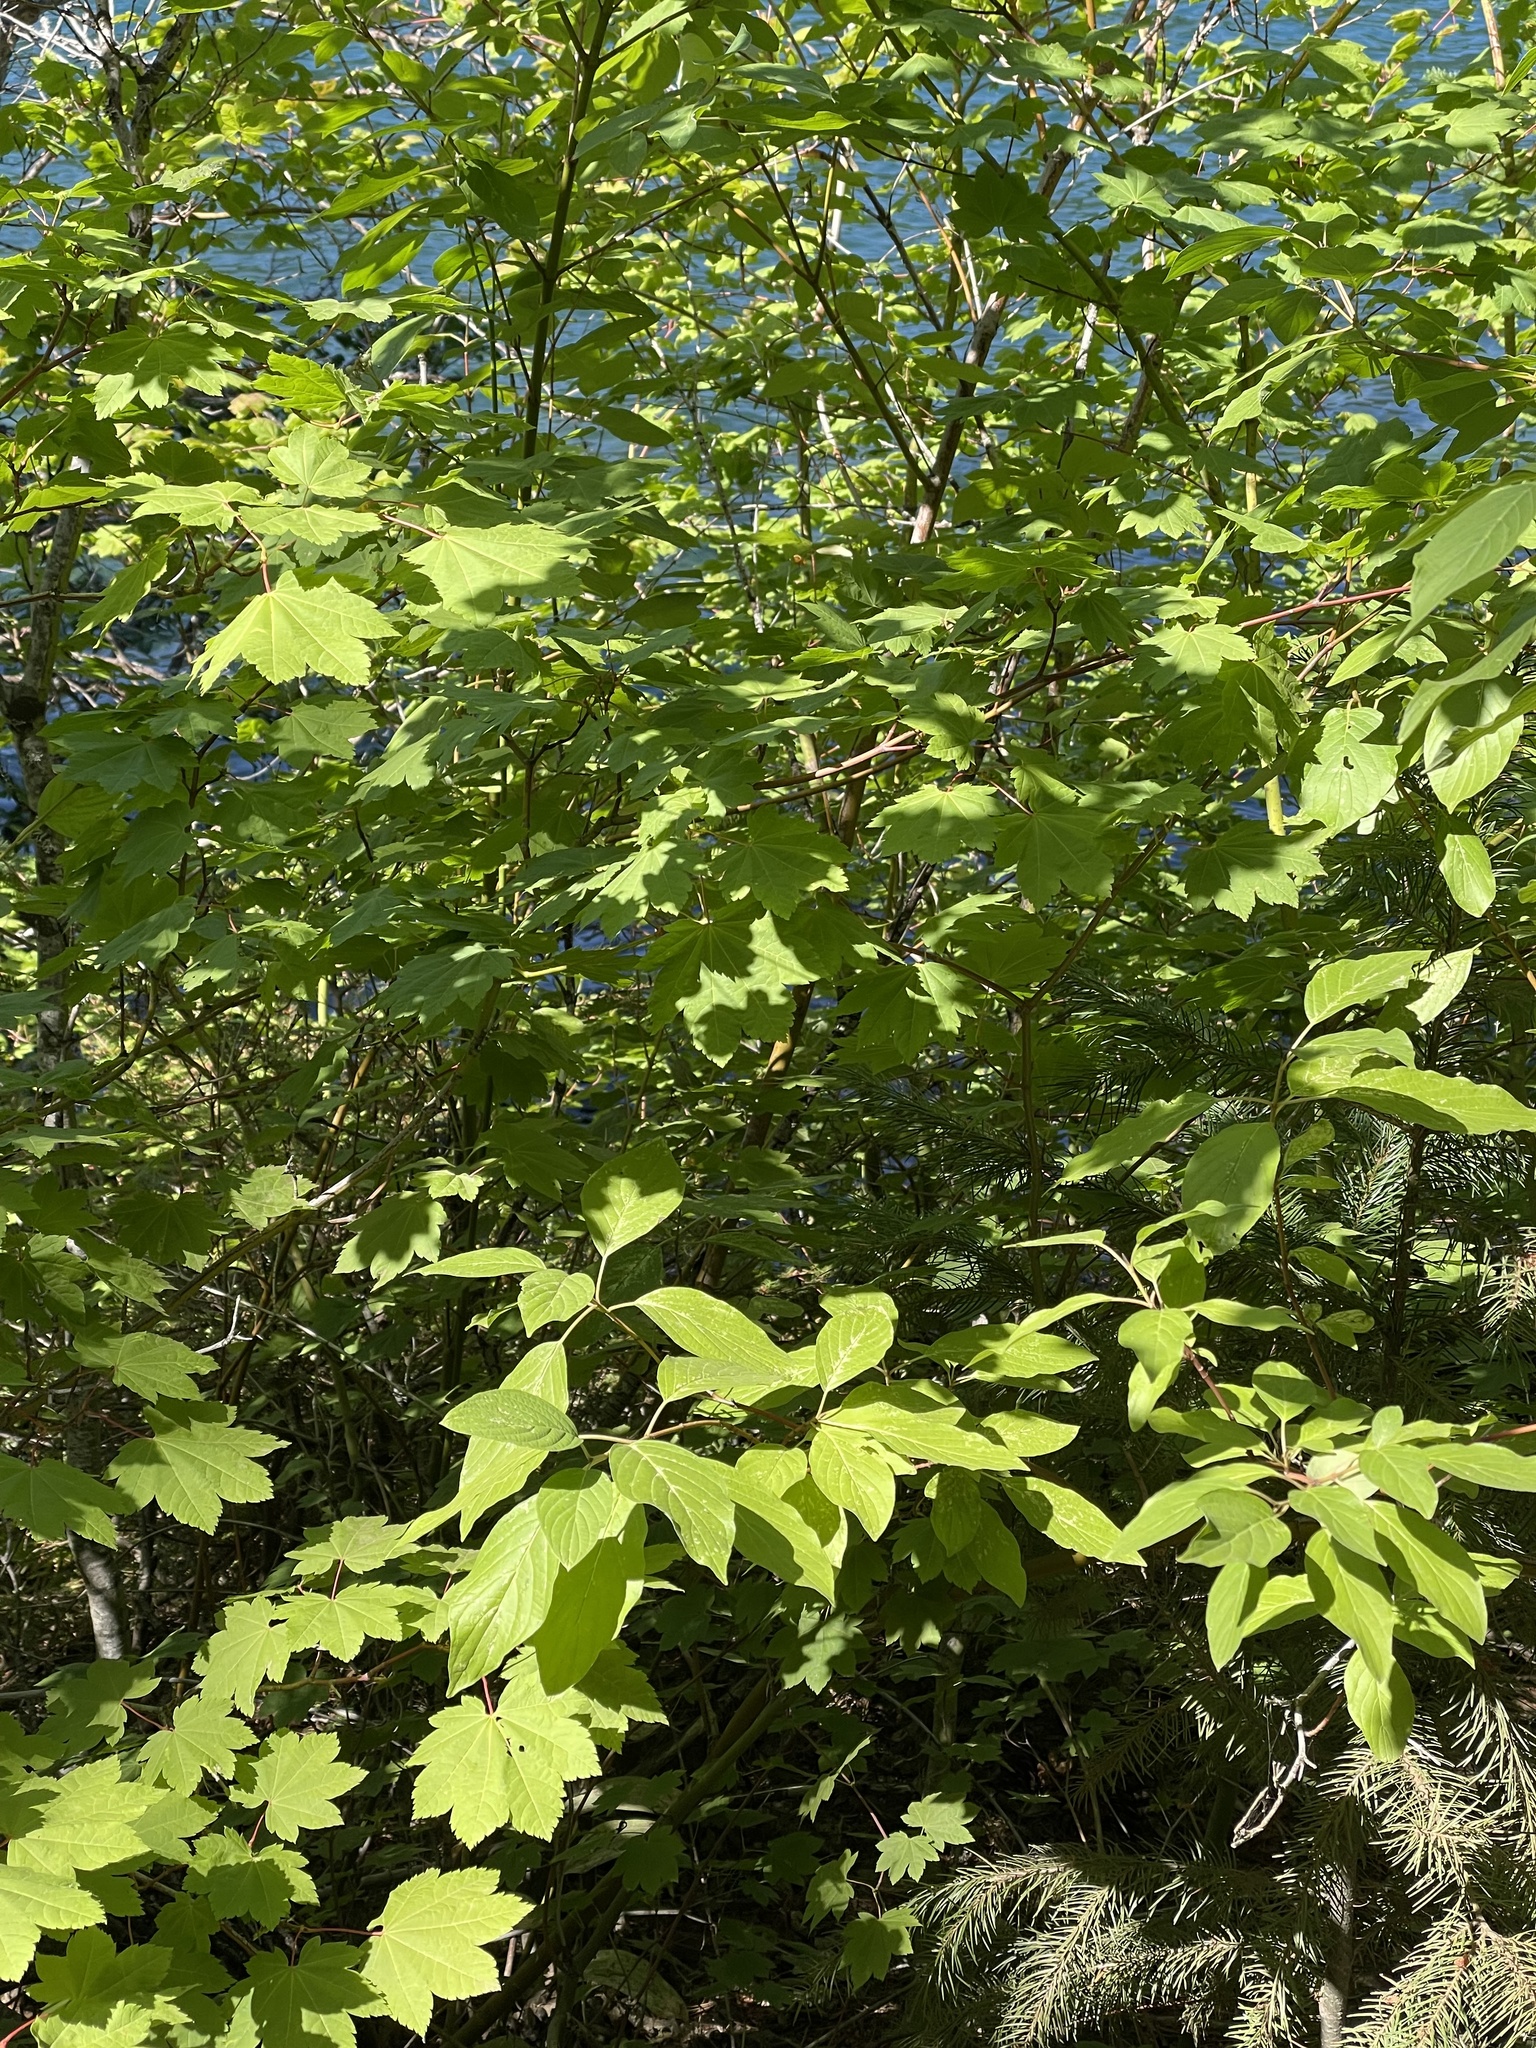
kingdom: Plantae
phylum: Tracheophyta
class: Magnoliopsida
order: Sapindales
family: Sapindaceae
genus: Acer
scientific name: Acer circinatum
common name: Vine maple
